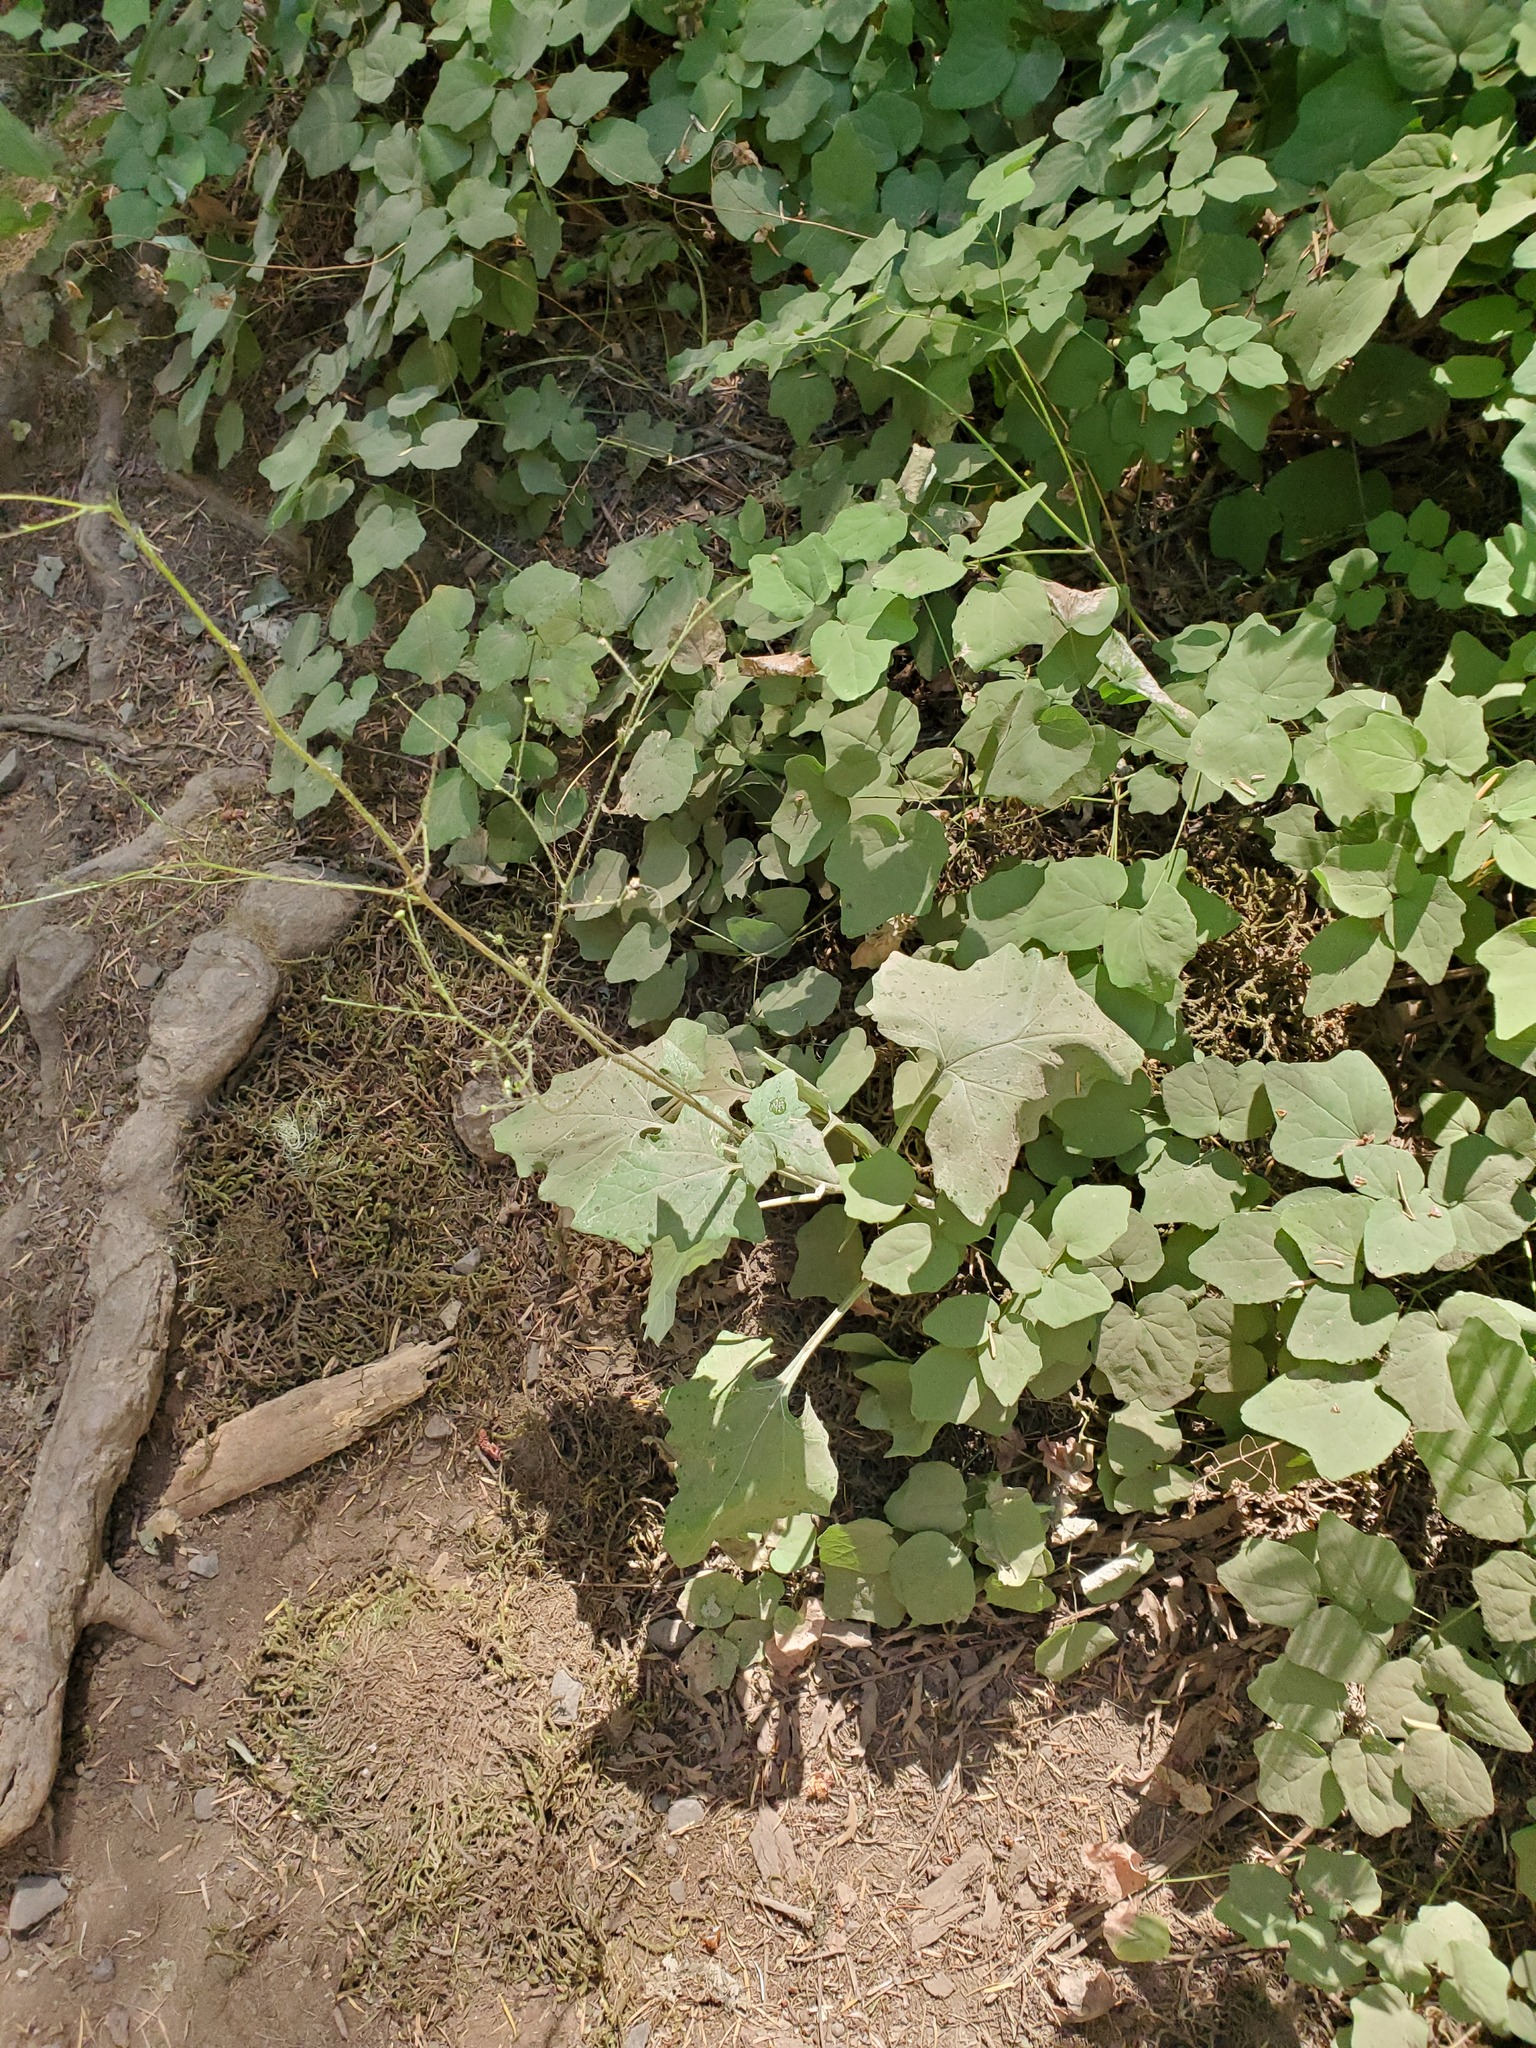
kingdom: Plantae
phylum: Tracheophyta
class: Magnoliopsida
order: Asterales
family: Asteraceae
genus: Adenocaulon
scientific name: Adenocaulon bicolor
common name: Trailplant
